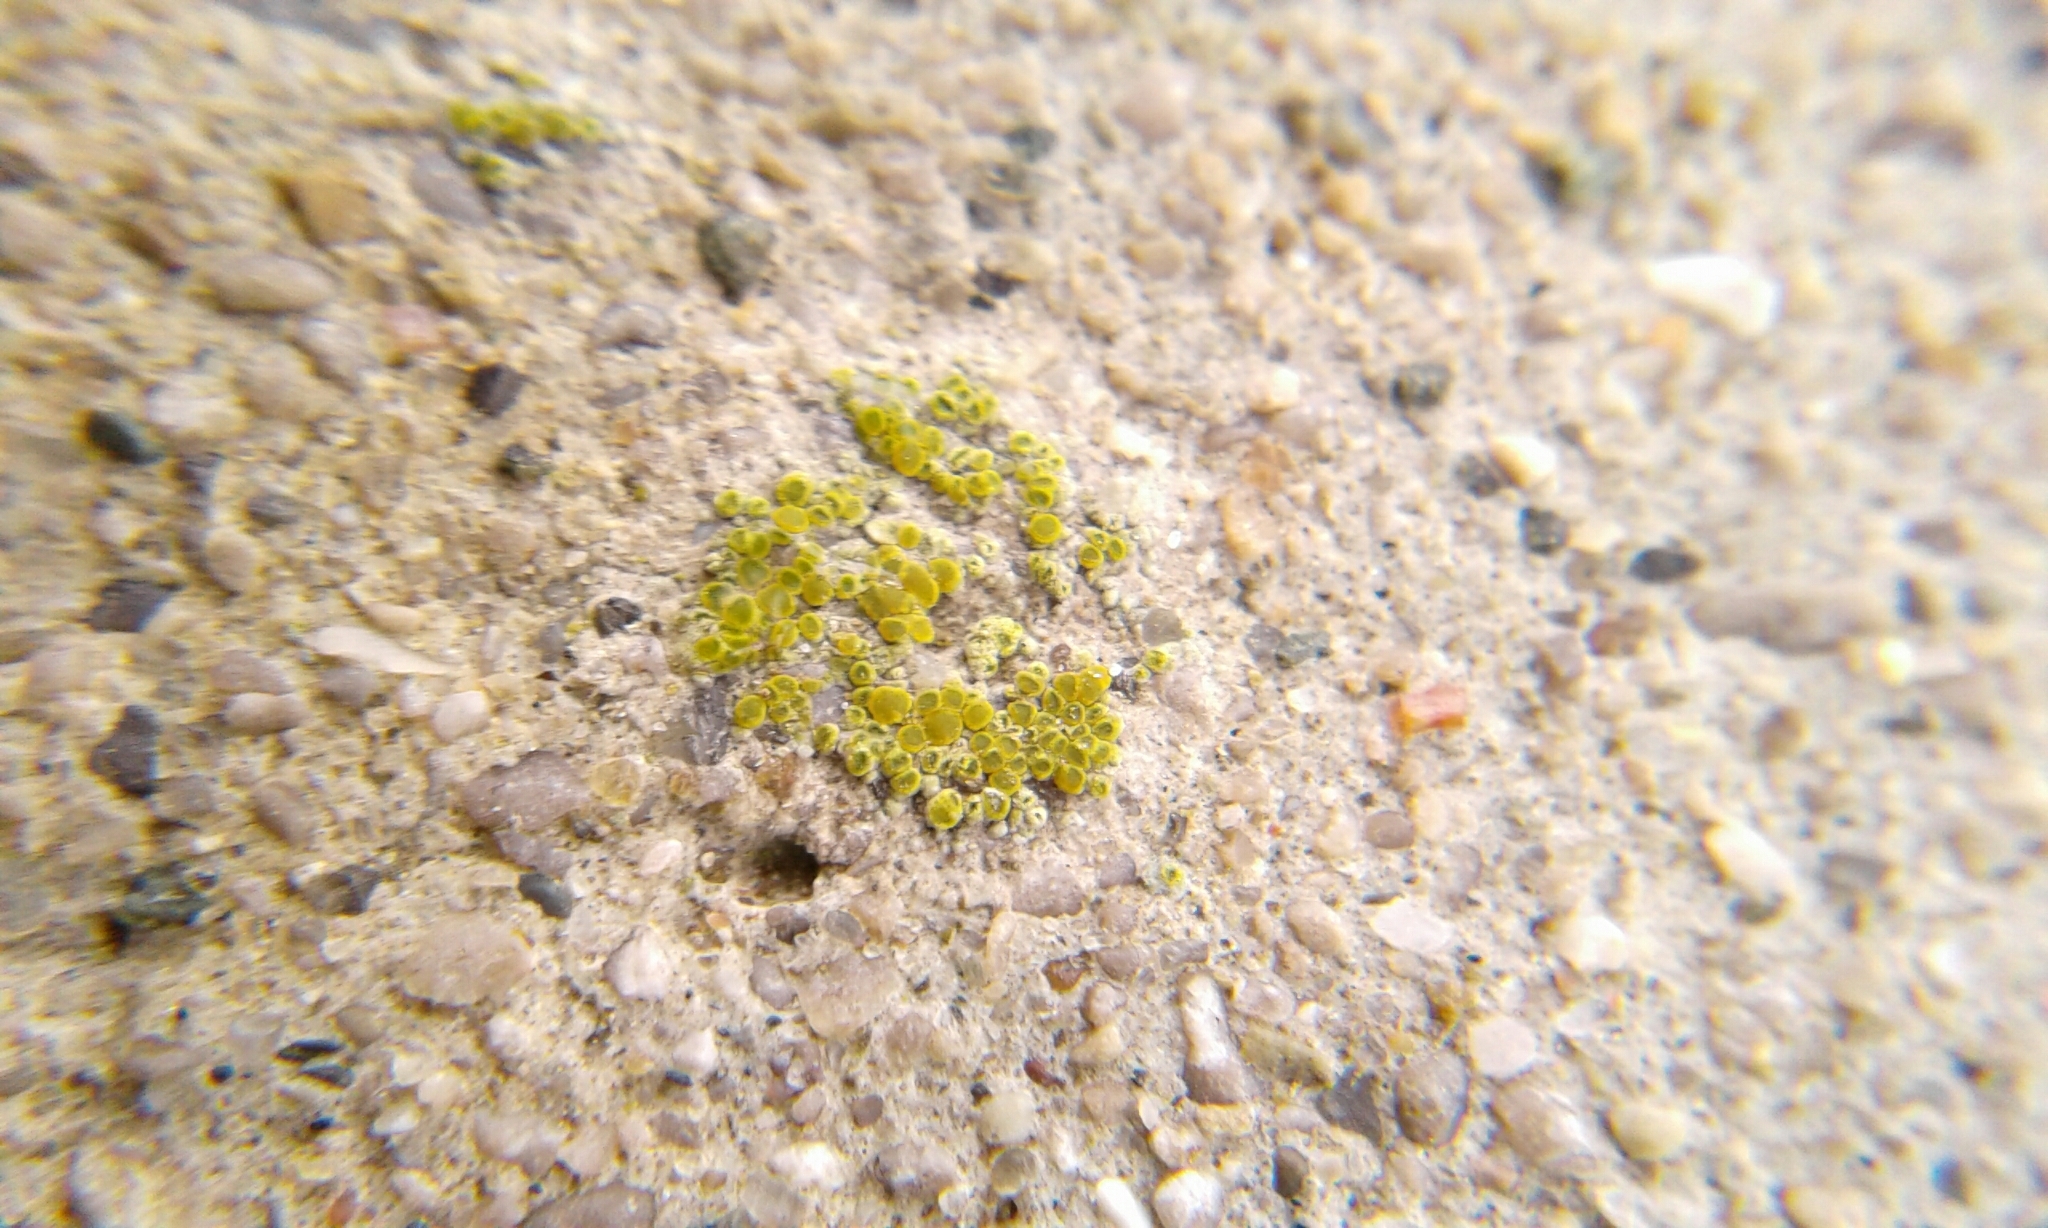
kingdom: Fungi
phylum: Ascomycota
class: Candelariomycetes
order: Candelariales
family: Candelariaceae
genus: Candelariella
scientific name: Candelariella aurella
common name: Hidden goldspeck lichen
